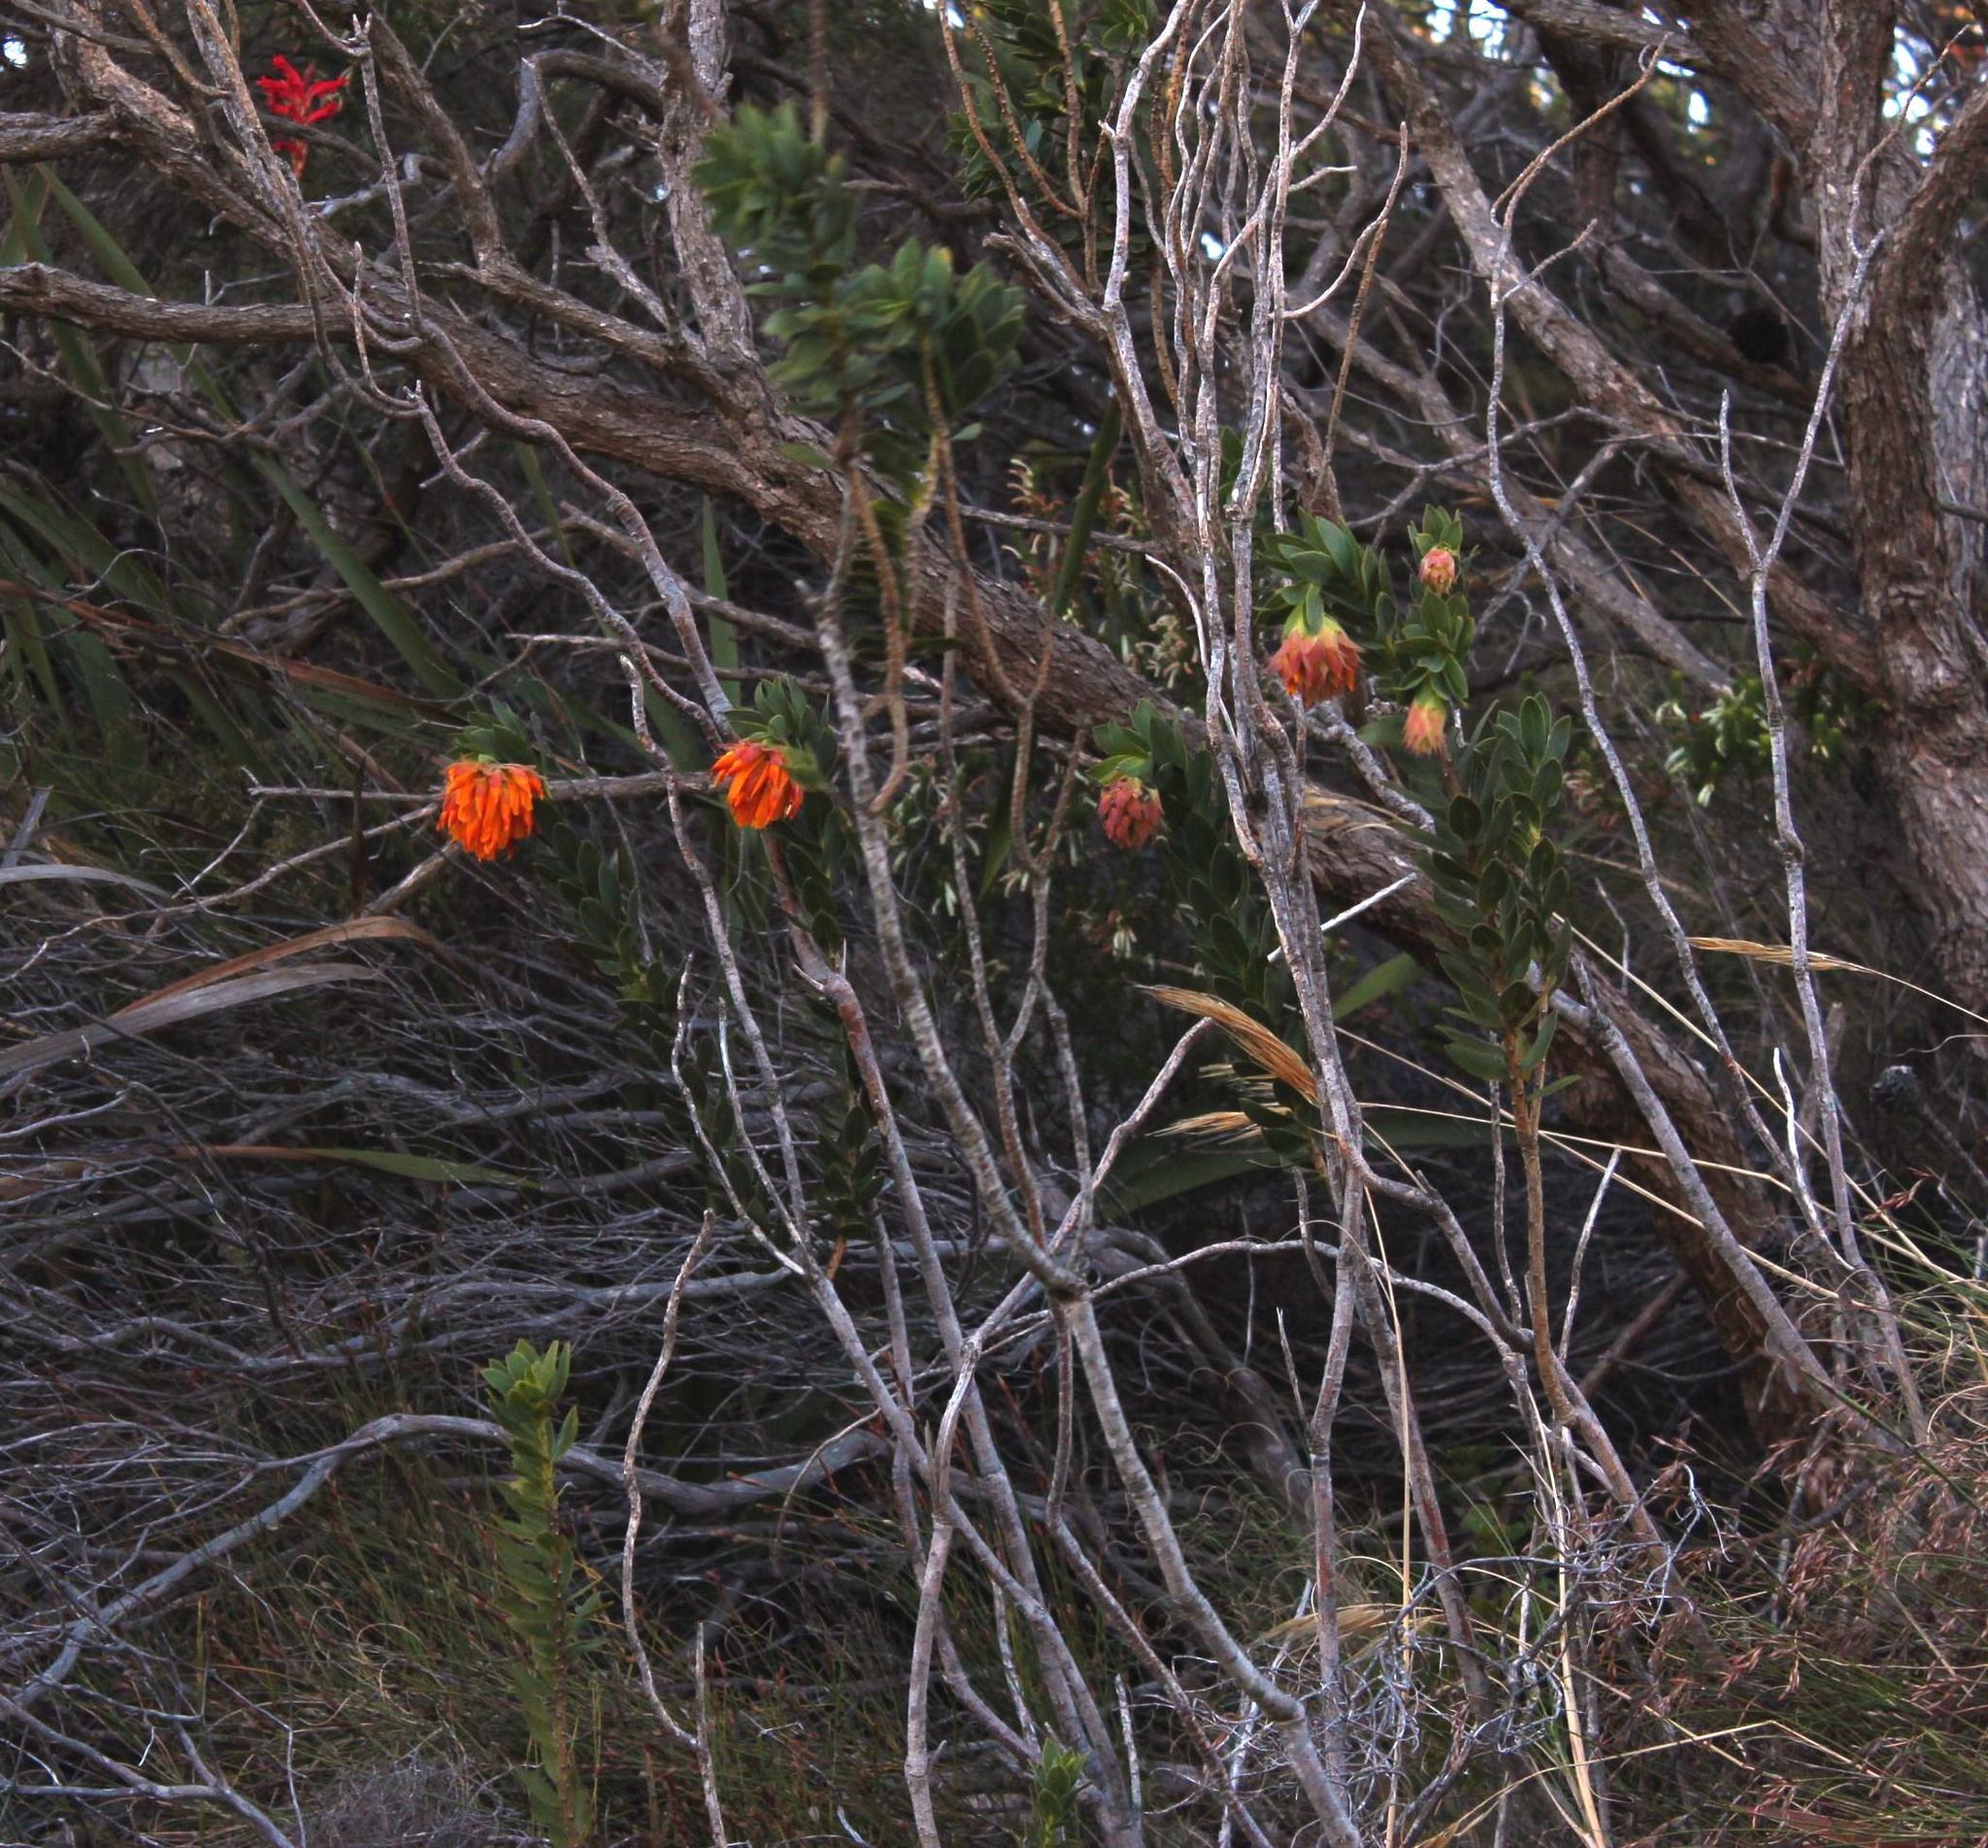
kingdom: Plantae
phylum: Tracheophyta
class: Magnoliopsida
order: Fabales
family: Fabaceae
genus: Liparia
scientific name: Liparia splendens
